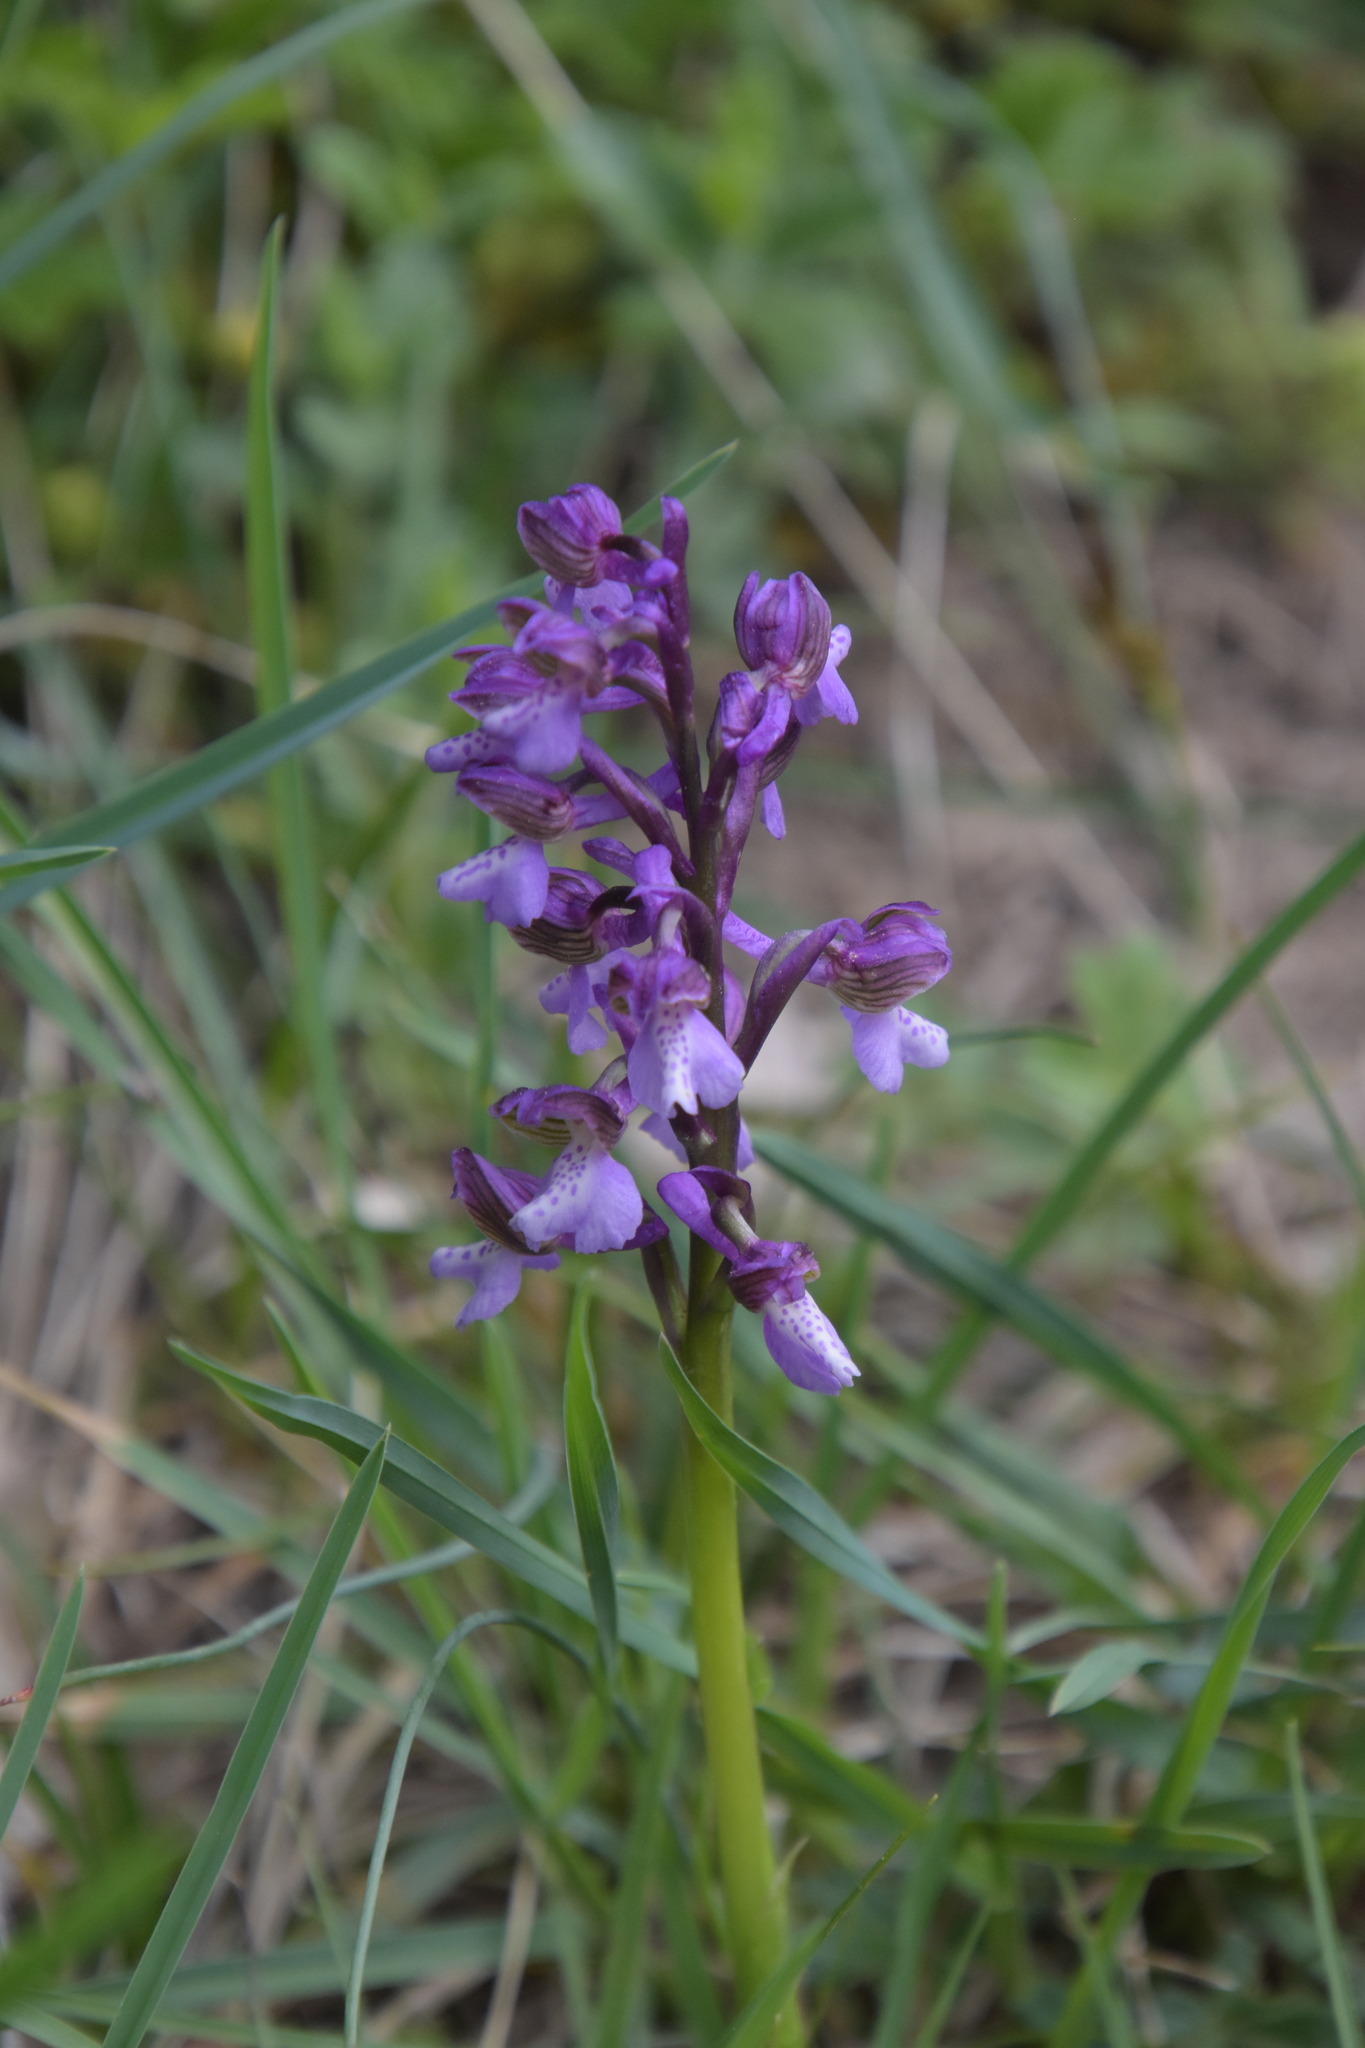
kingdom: Plantae
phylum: Tracheophyta
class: Liliopsida
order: Asparagales
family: Orchidaceae
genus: Anacamptis
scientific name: Anacamptis morio
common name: Green-winged orchid
